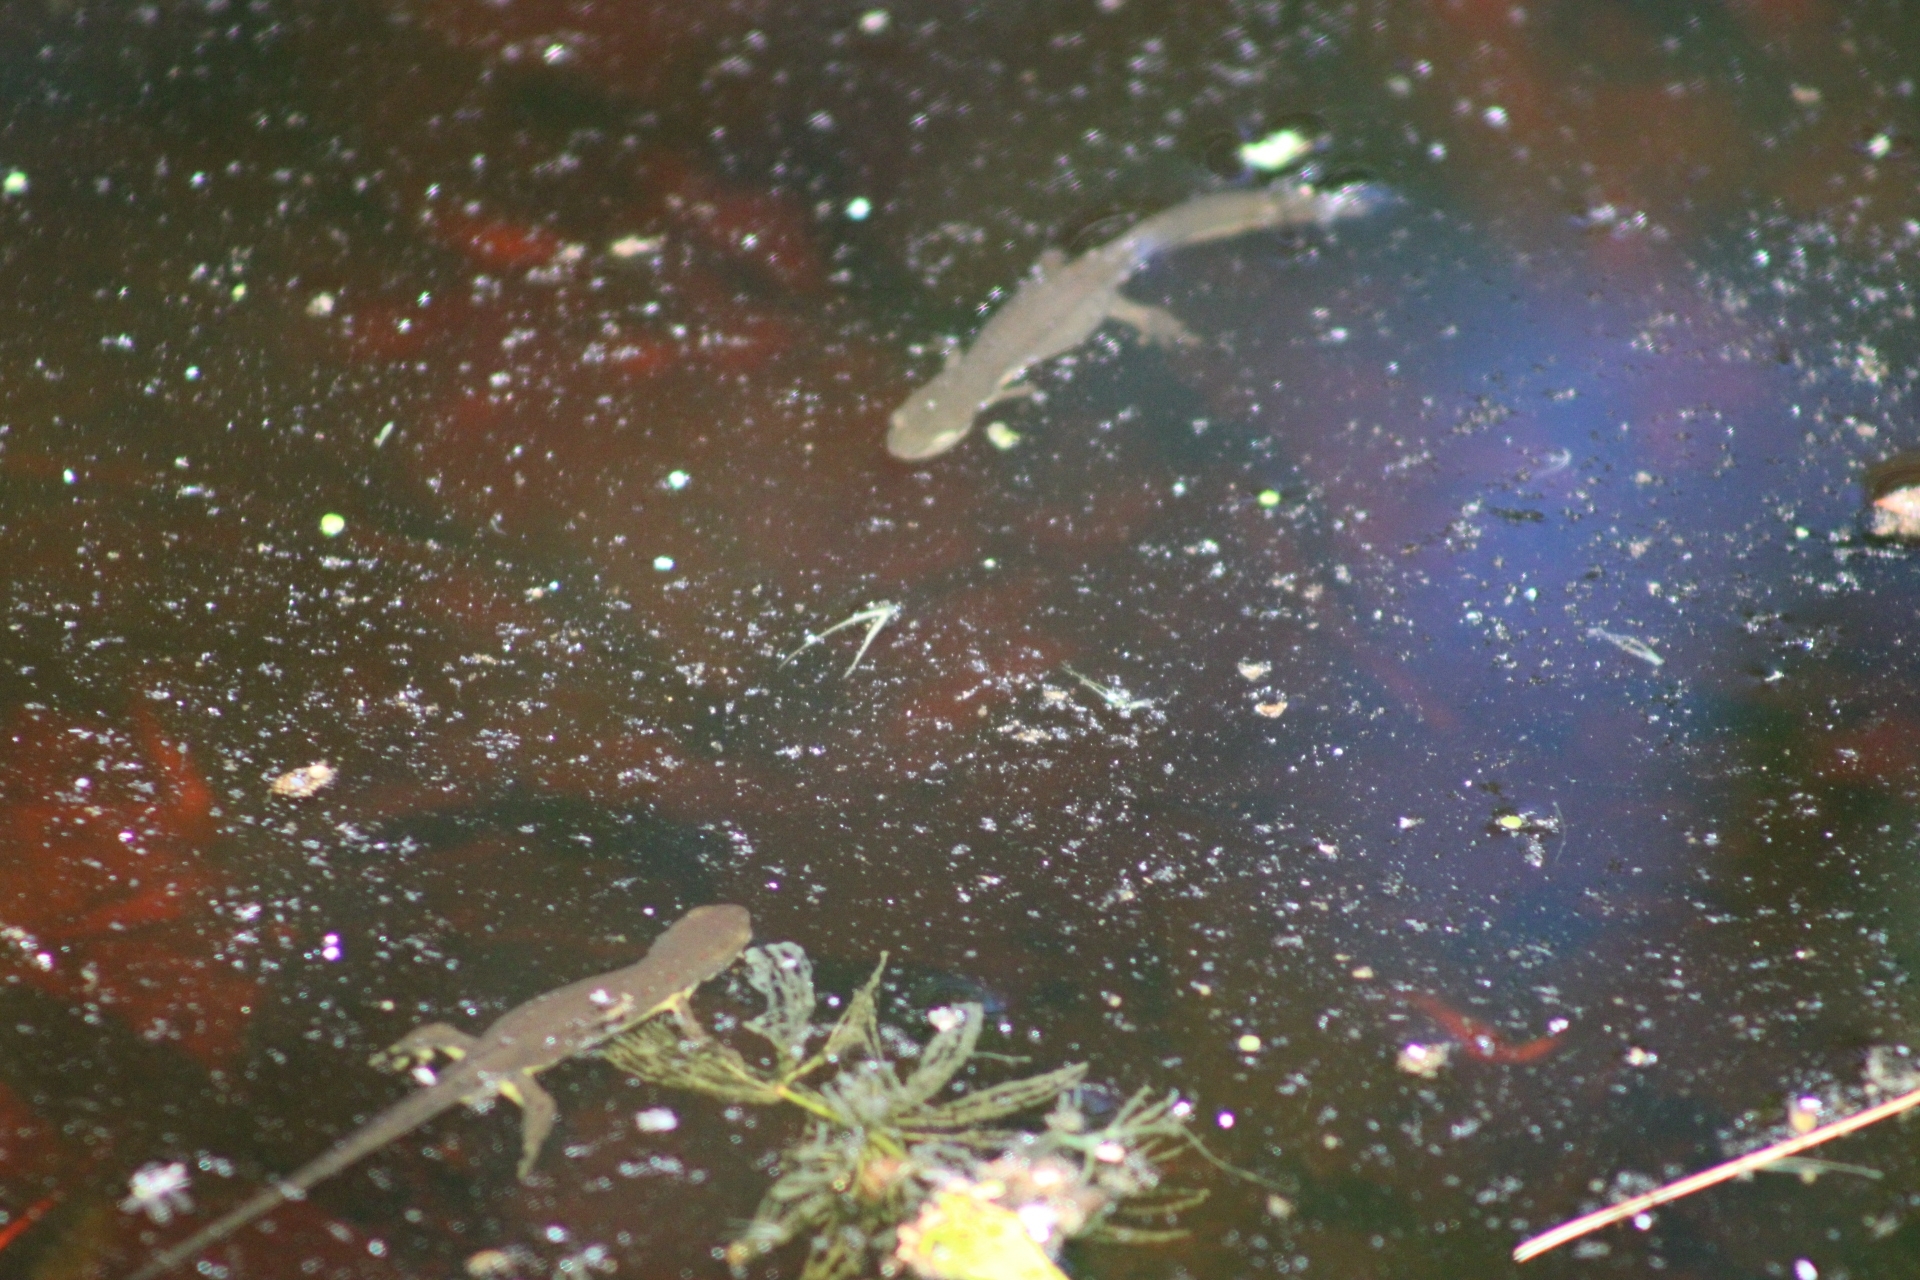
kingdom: Animalia
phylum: Chordata
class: Amphibia
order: Caudata
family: Salamandridae
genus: Notophthalmus
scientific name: Notophthalmus viridescens
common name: Eastern newt
